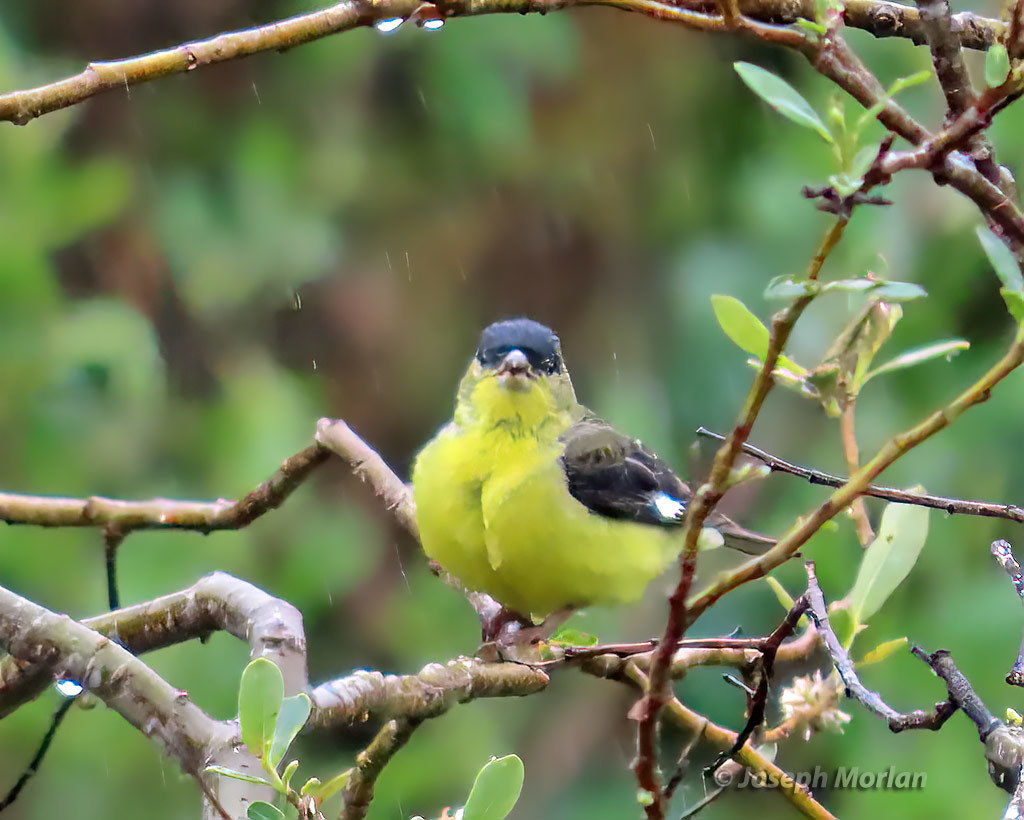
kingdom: Animalia
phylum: Chordata
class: Aves
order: Passeriformes
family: Fringillidae
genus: Spinus
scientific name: Spinus psaltria
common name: Lesser goldfinch
